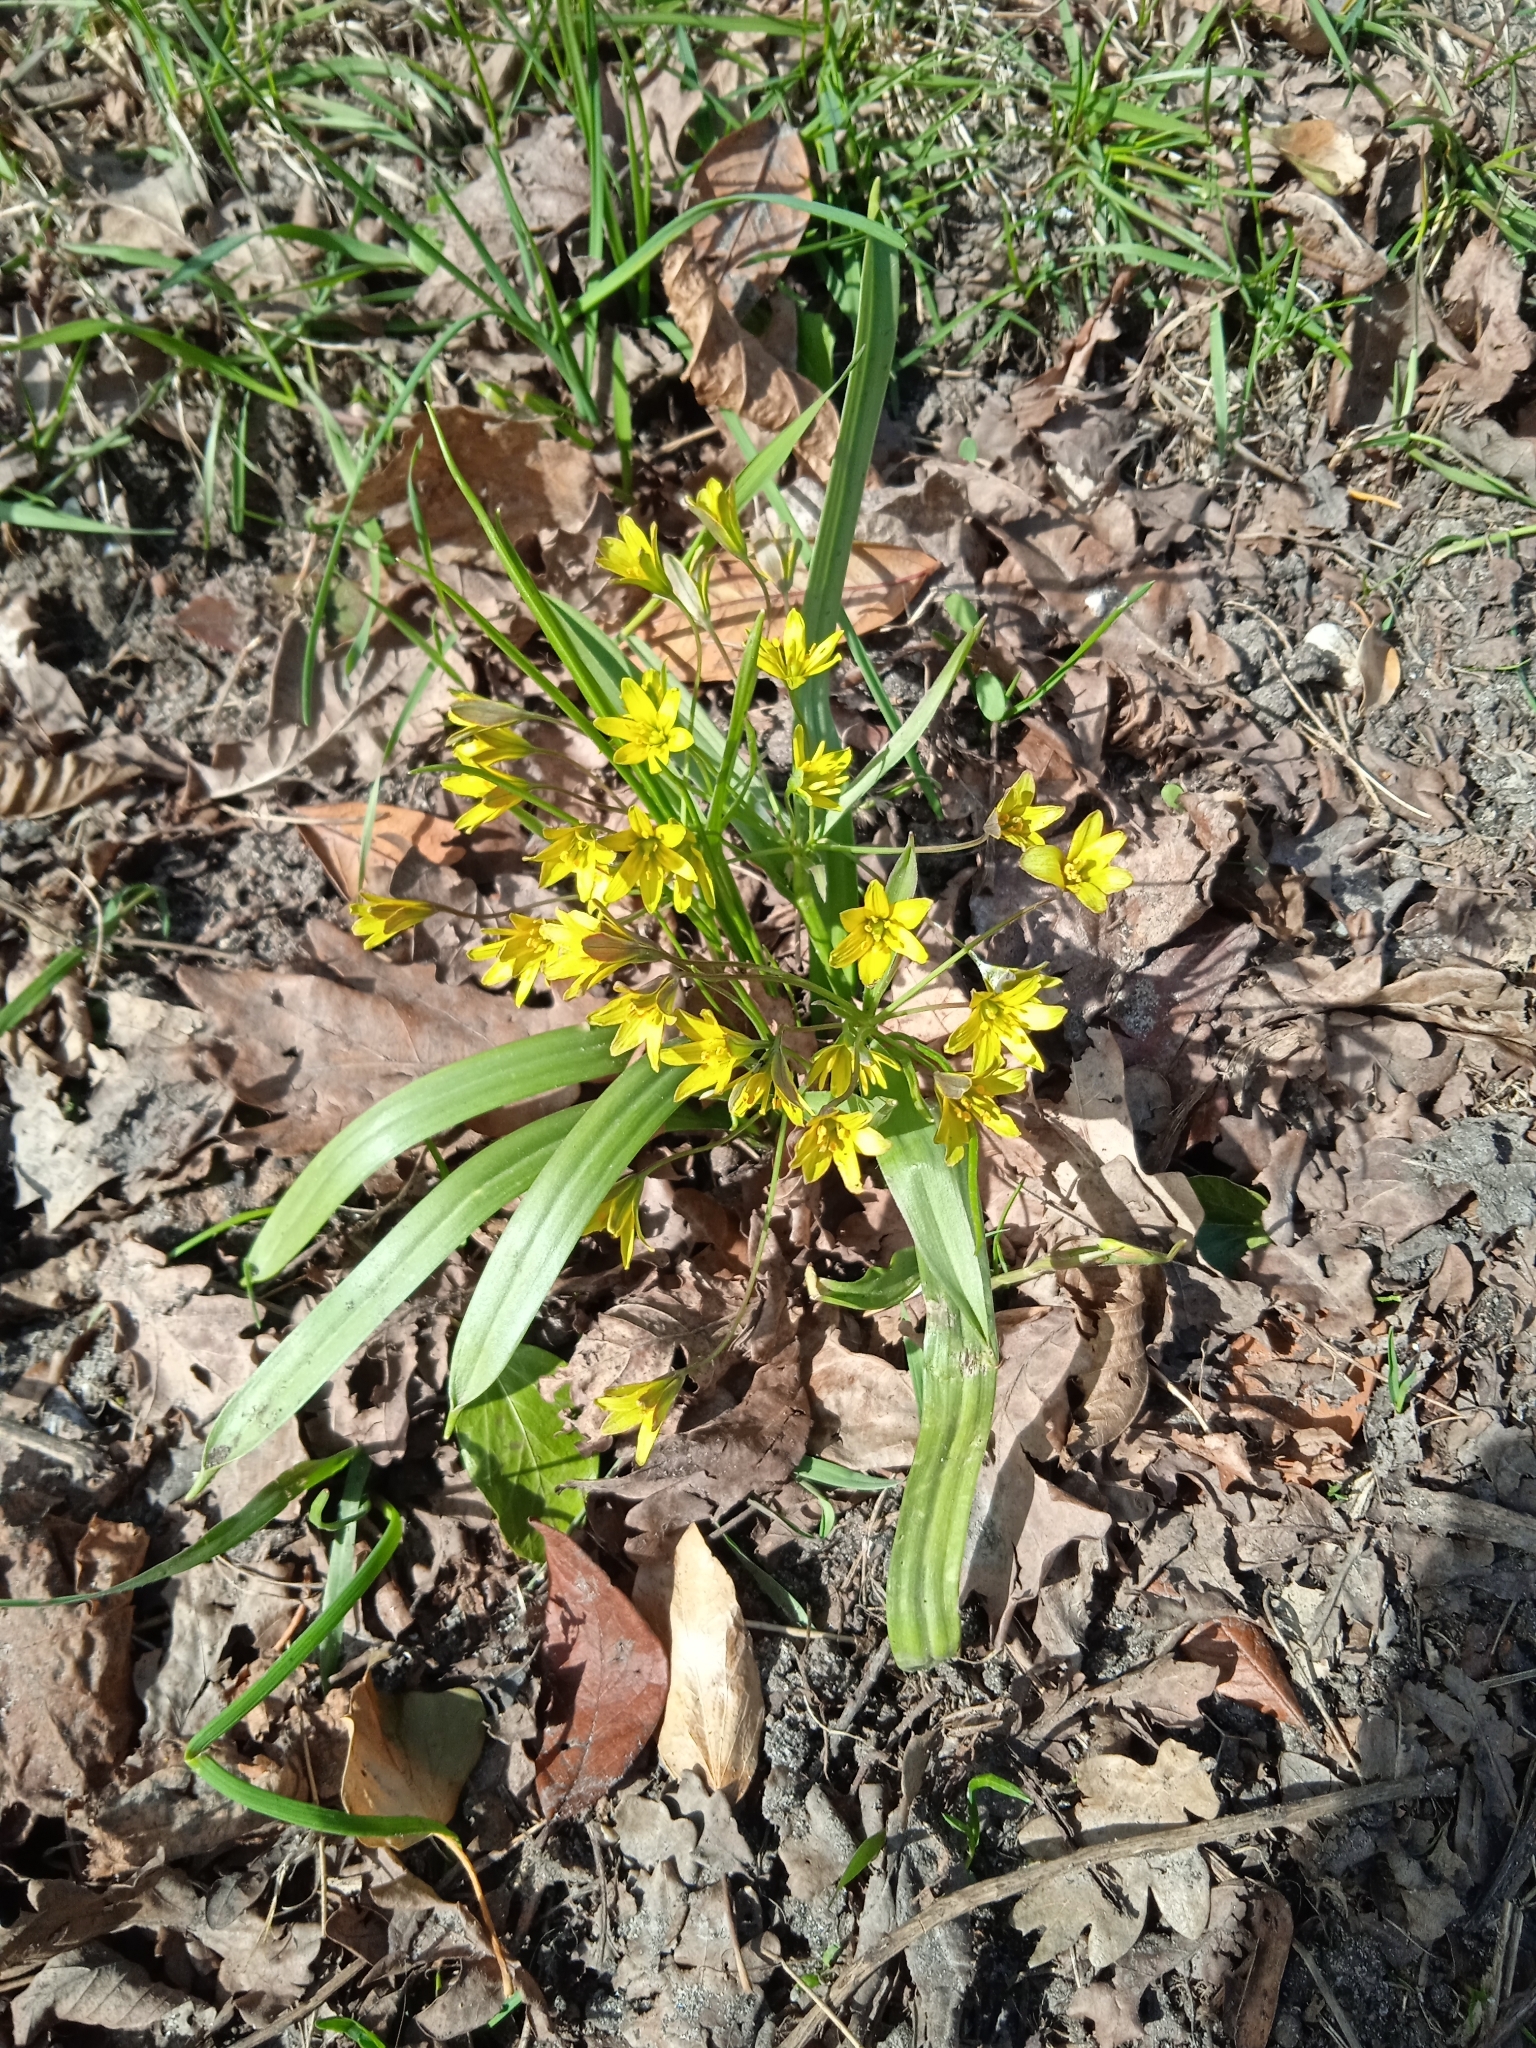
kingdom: Plantae
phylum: Tracheophyta
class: Liliopsida
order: Liliales
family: Liliaceae
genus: Gagea
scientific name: Gagea lutea
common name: Yellow star-of-bethlehem
